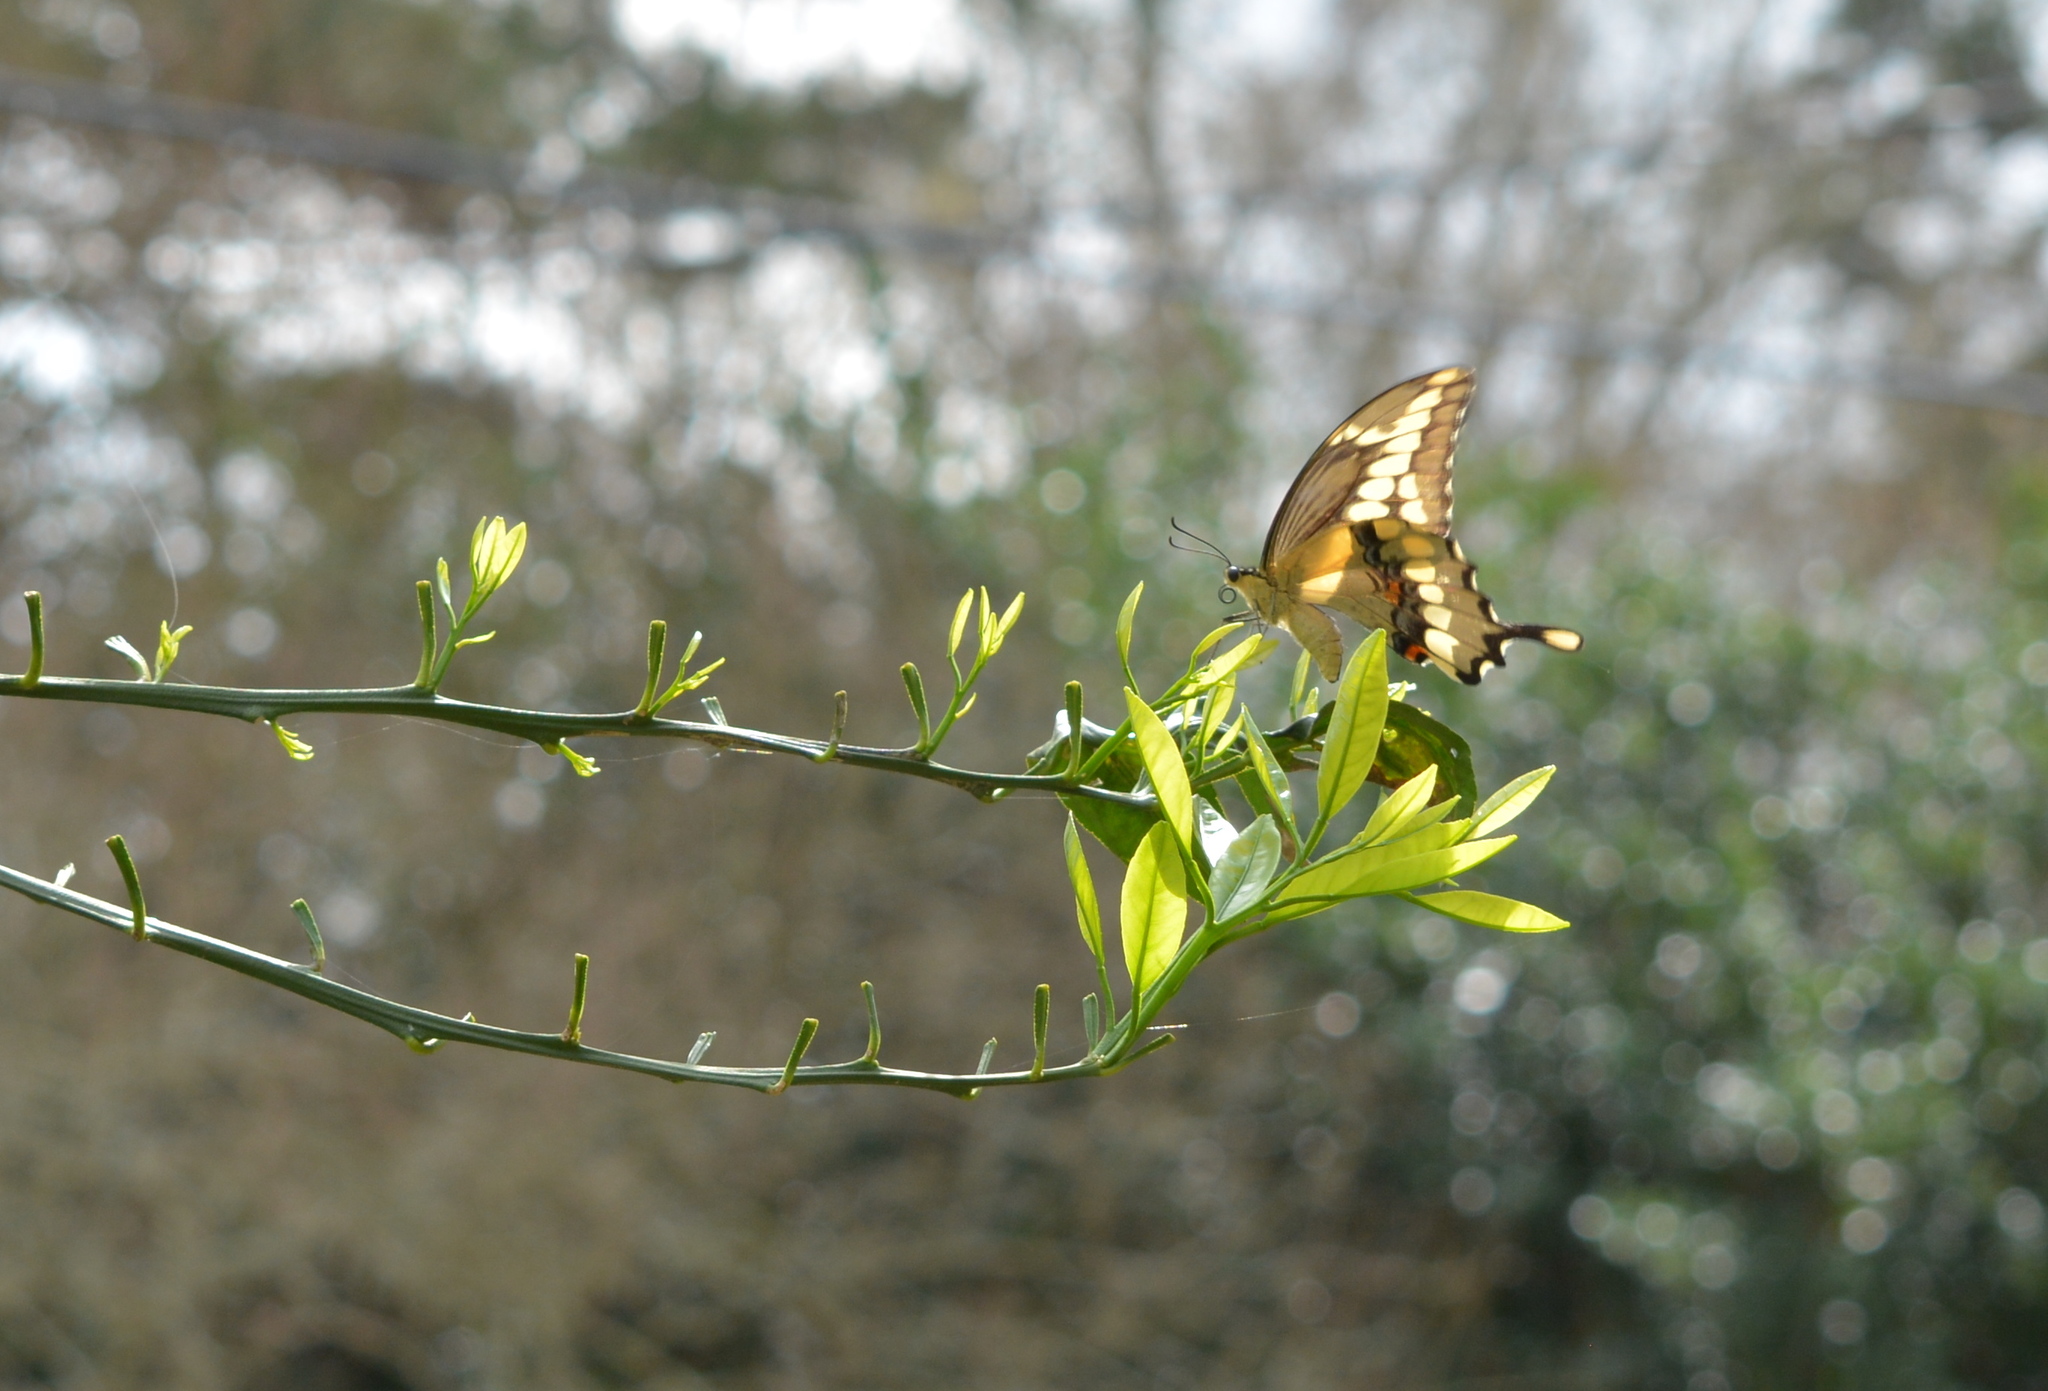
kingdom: Animalia
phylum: Arthropoda
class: Insecta
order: Lepidoptera
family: Papilionidae
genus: Papilio
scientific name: Papilio cresphontes
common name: Giant swallowtail
